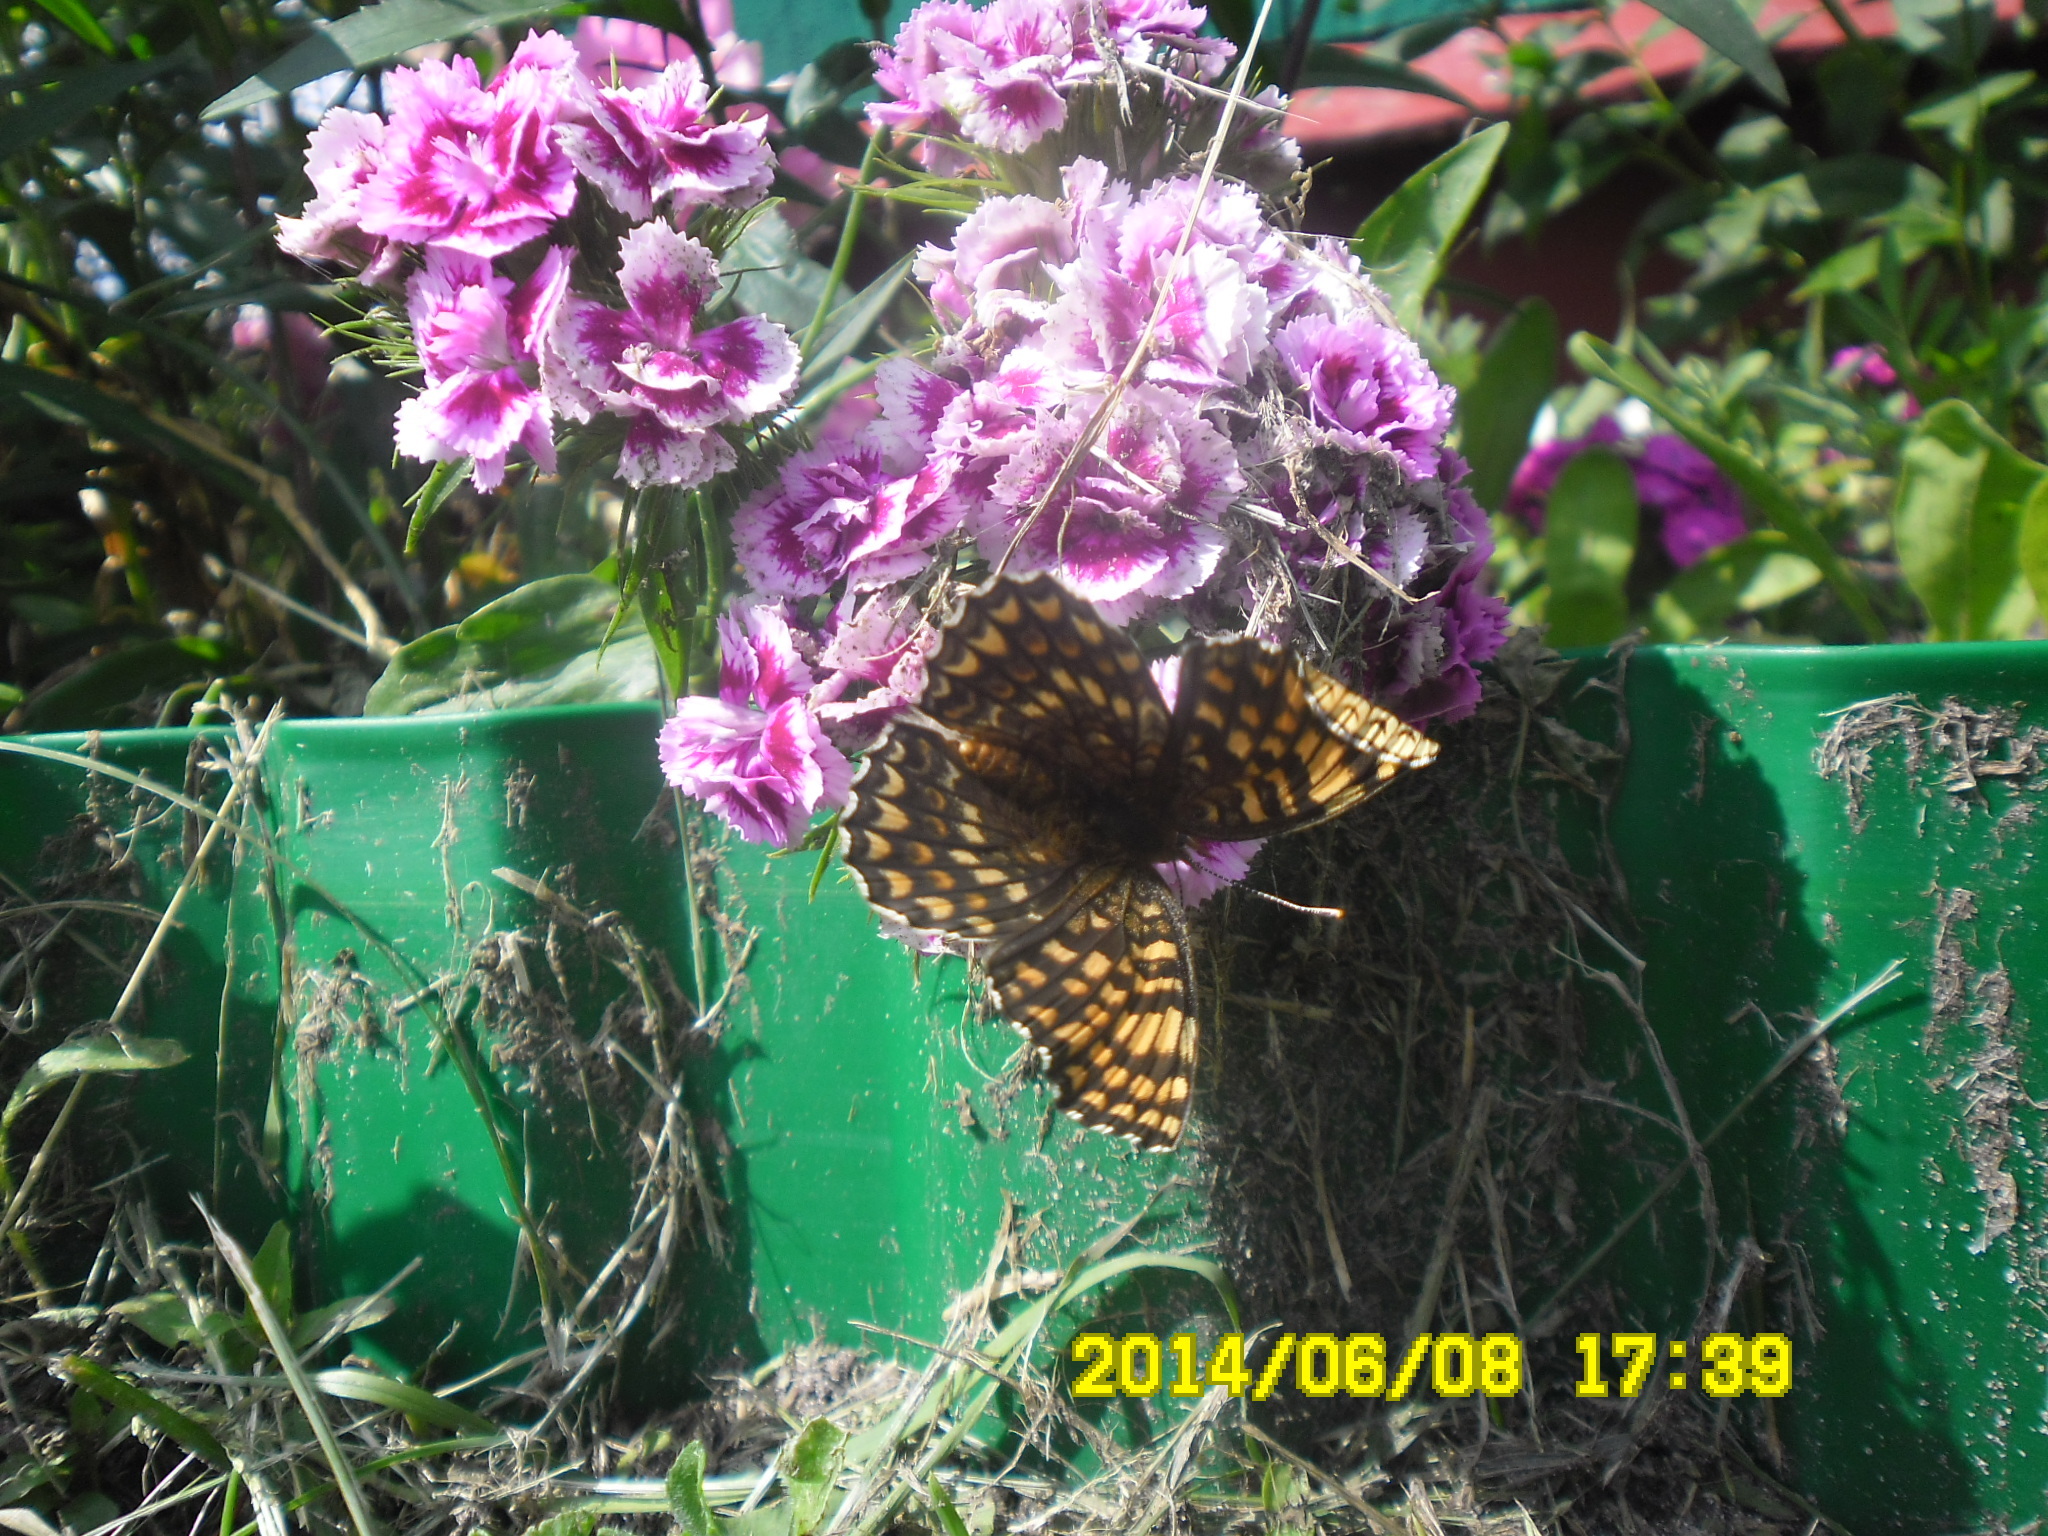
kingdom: Animalia
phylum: Arthropoda
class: Insecta
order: Lepidoptera
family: Nymphalidae
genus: Melitaea
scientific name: Melitaea phoebe
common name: Knapweed fritillary
